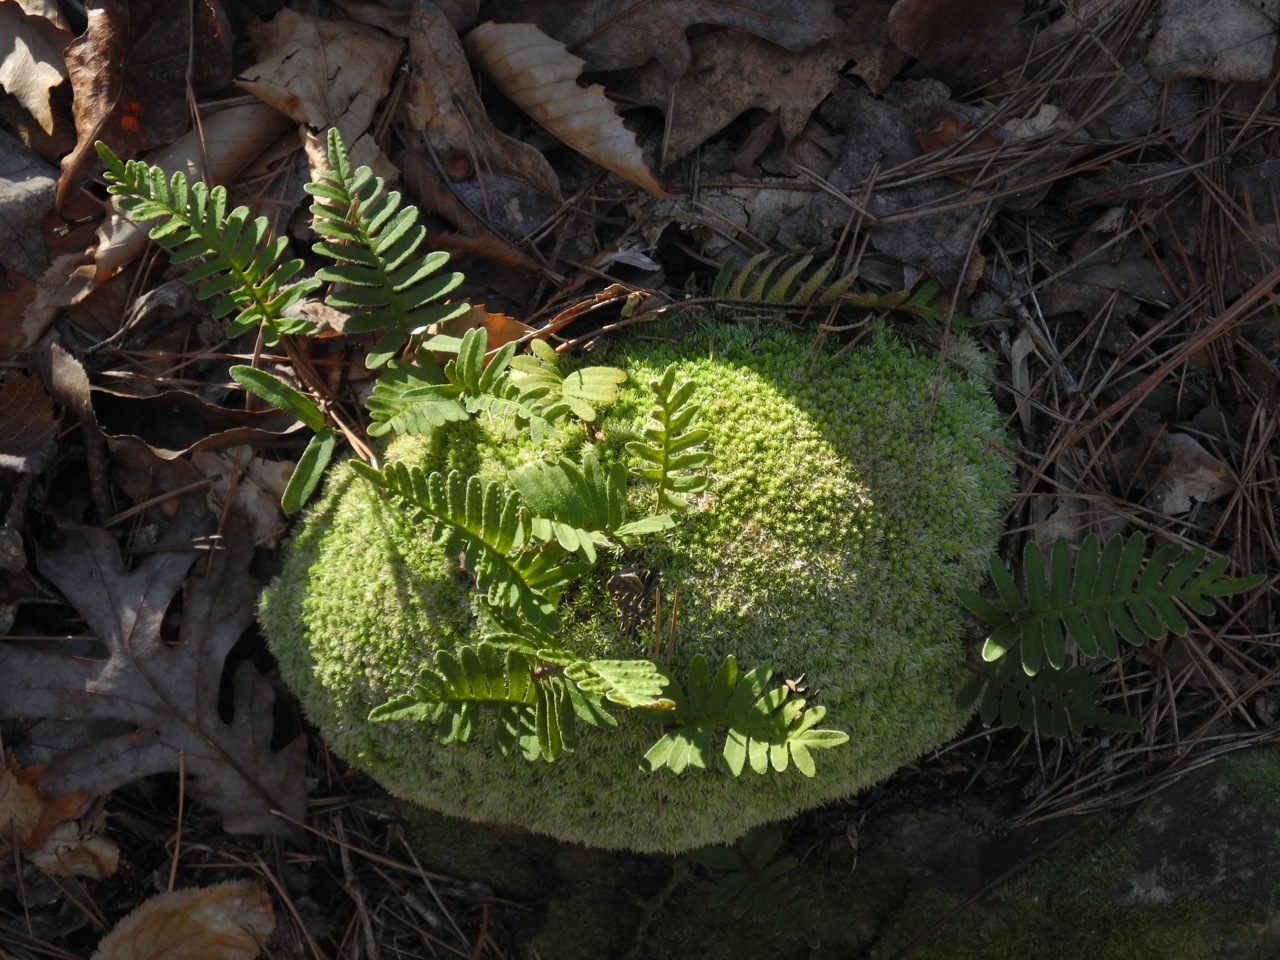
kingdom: Plantae
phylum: Tracheophyta
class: Polypodiopsida
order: Polypodiales
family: Polypodiaceae
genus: Pleopeltis
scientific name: Pleopeltis michauxiana
